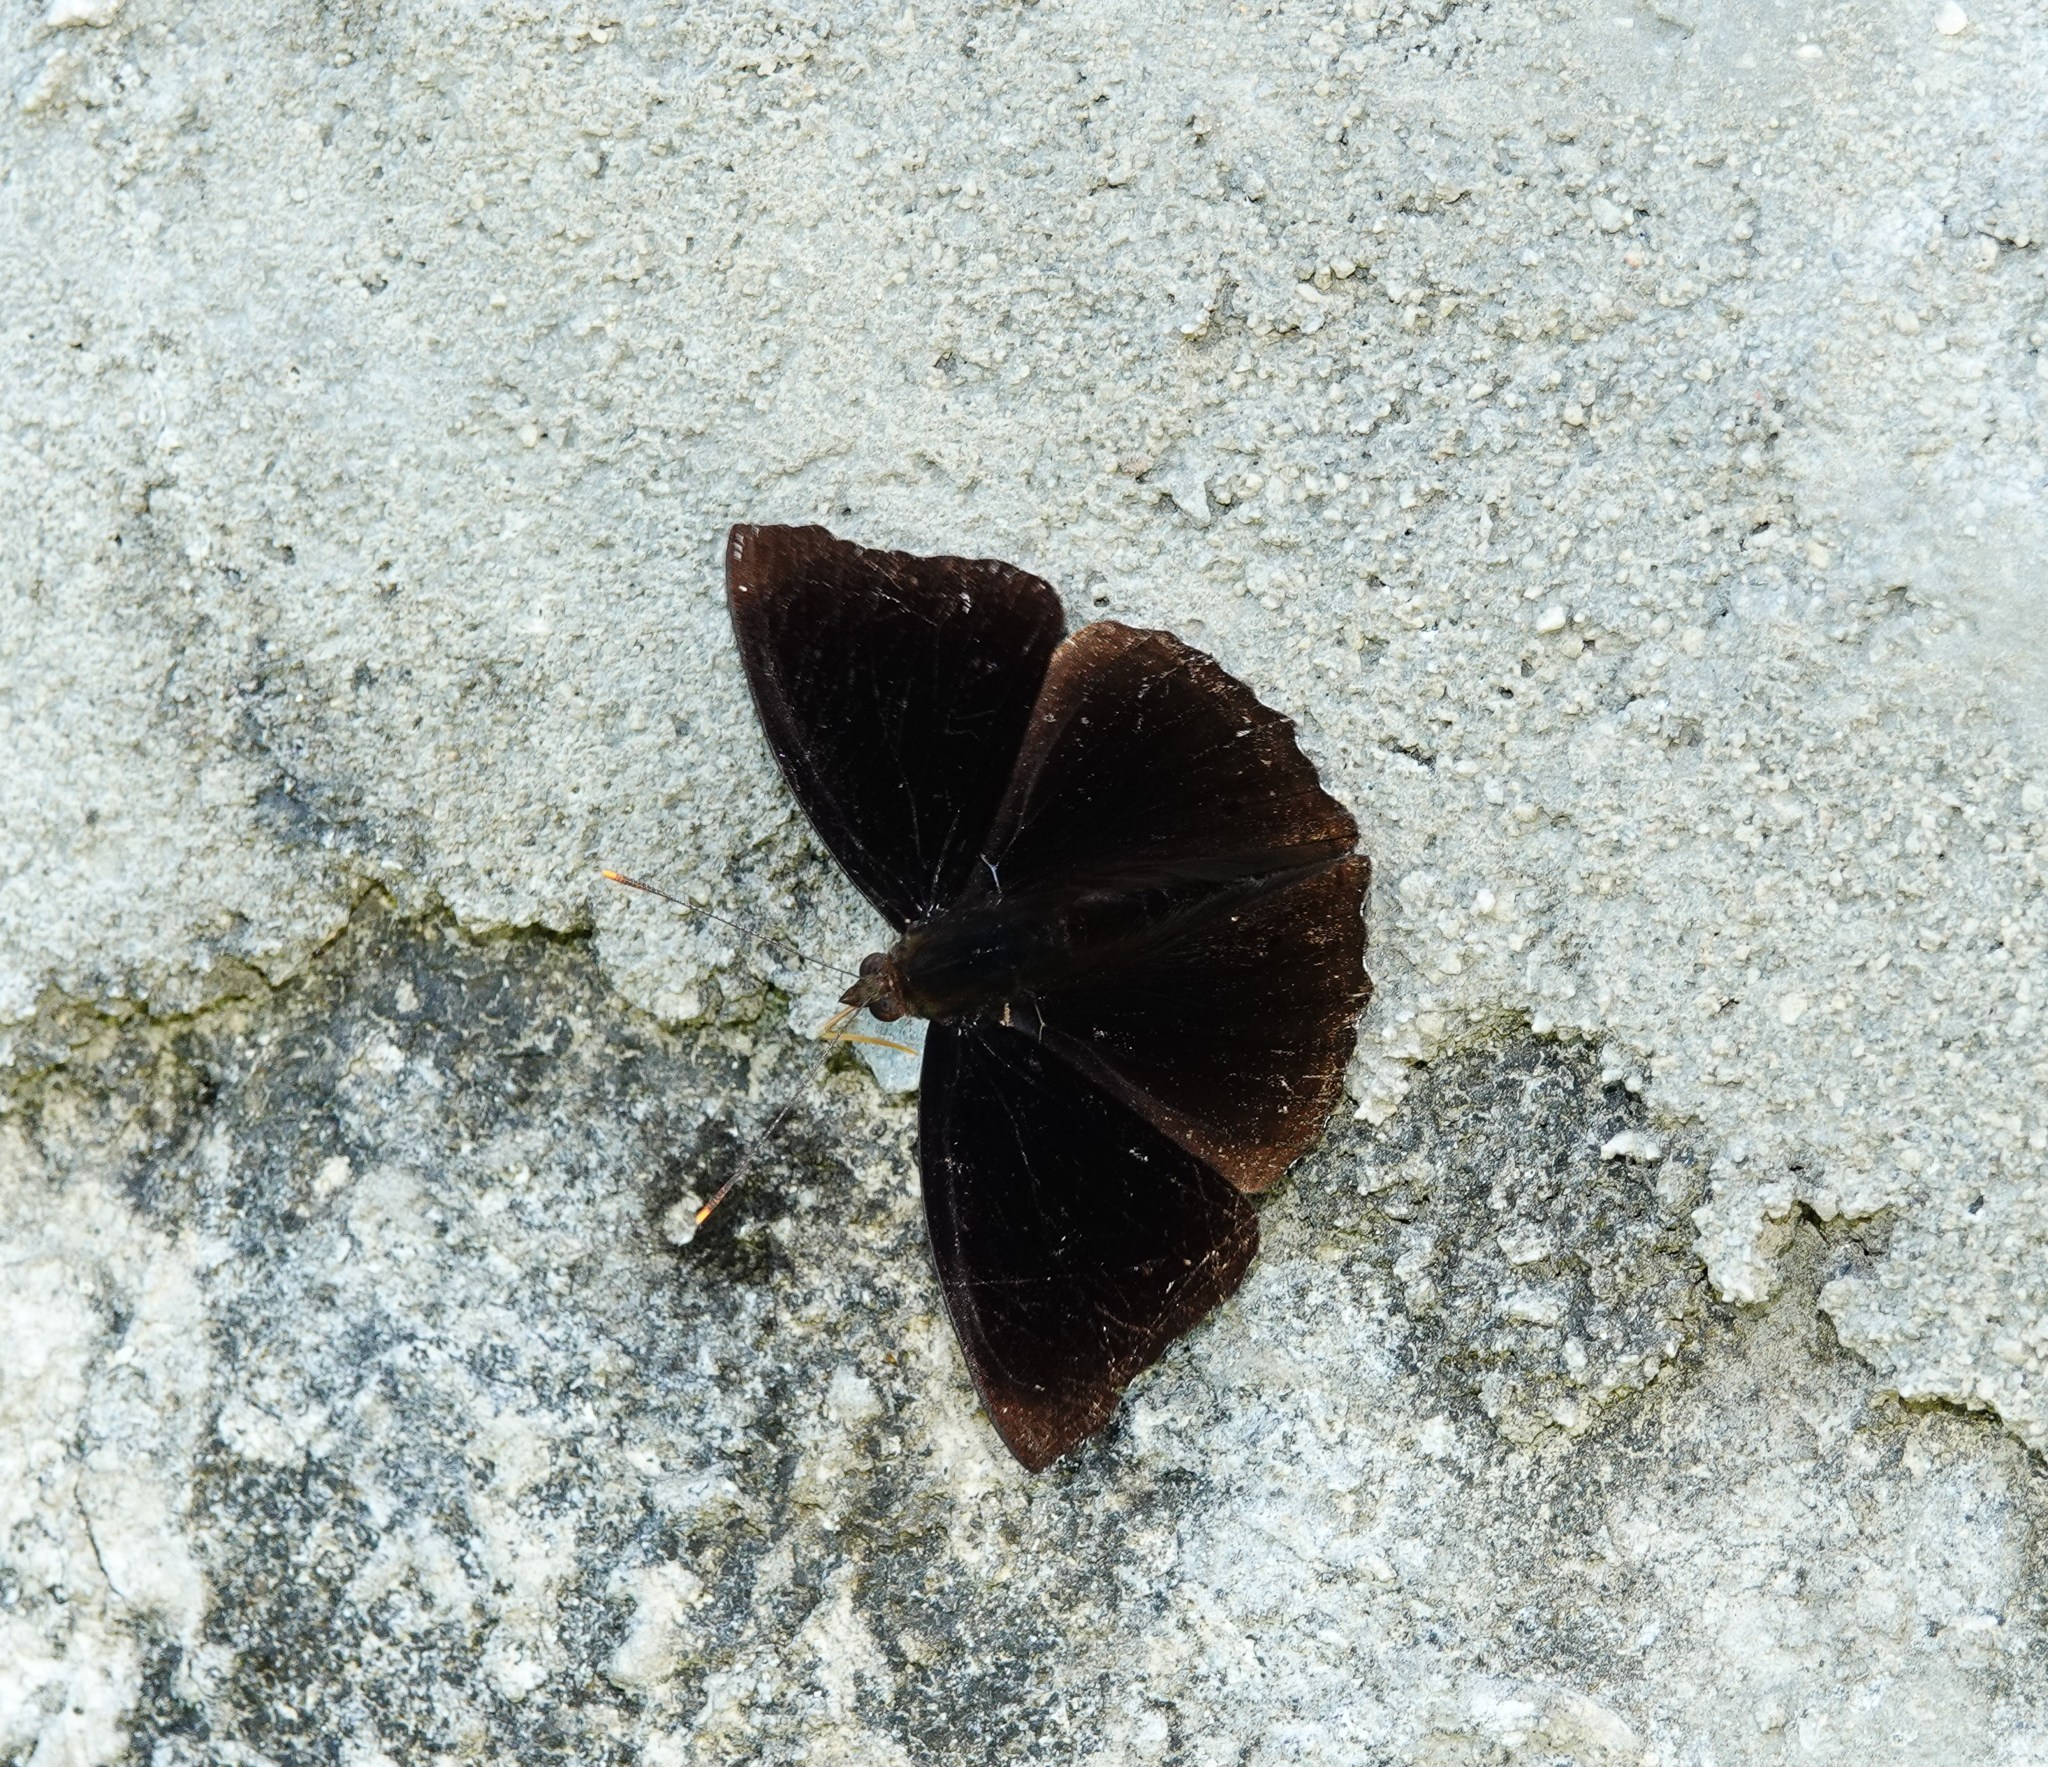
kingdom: Animalia
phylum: Arthropoda
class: Insecta
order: Lepidoptera
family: Nymphalidae
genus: Apatura
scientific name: Apatura Rohana spec
